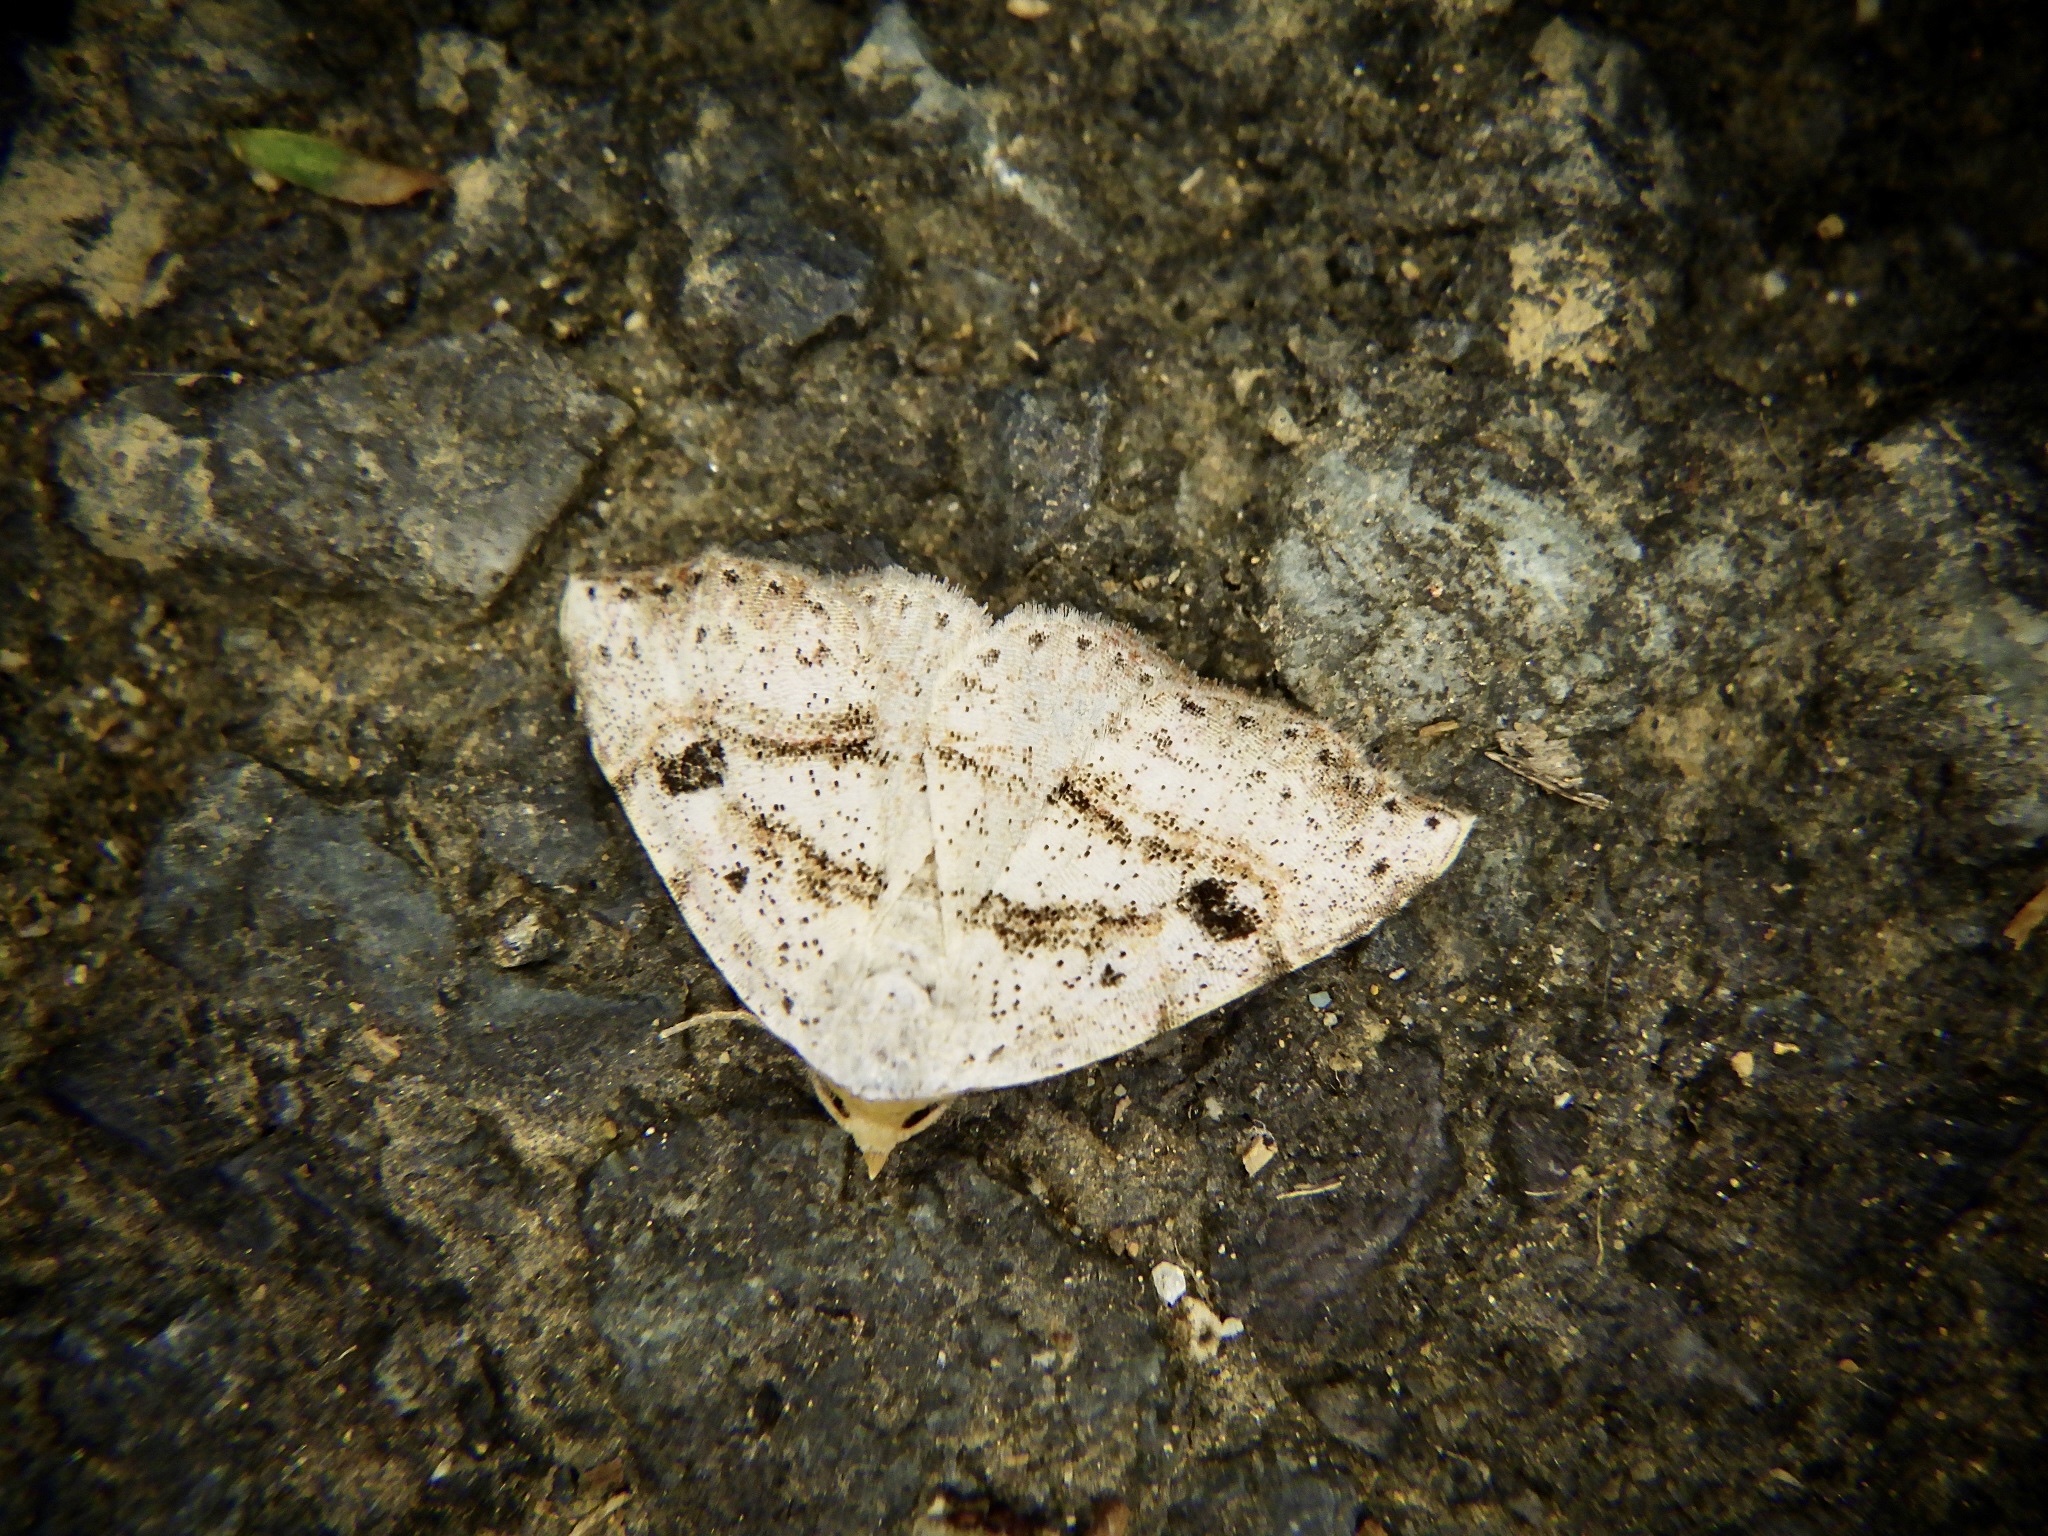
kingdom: Animalia
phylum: Arthropoda
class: Insecta
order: Lepidoptera
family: Erebidae
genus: Laspeyria
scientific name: Laspeyria subrosea
